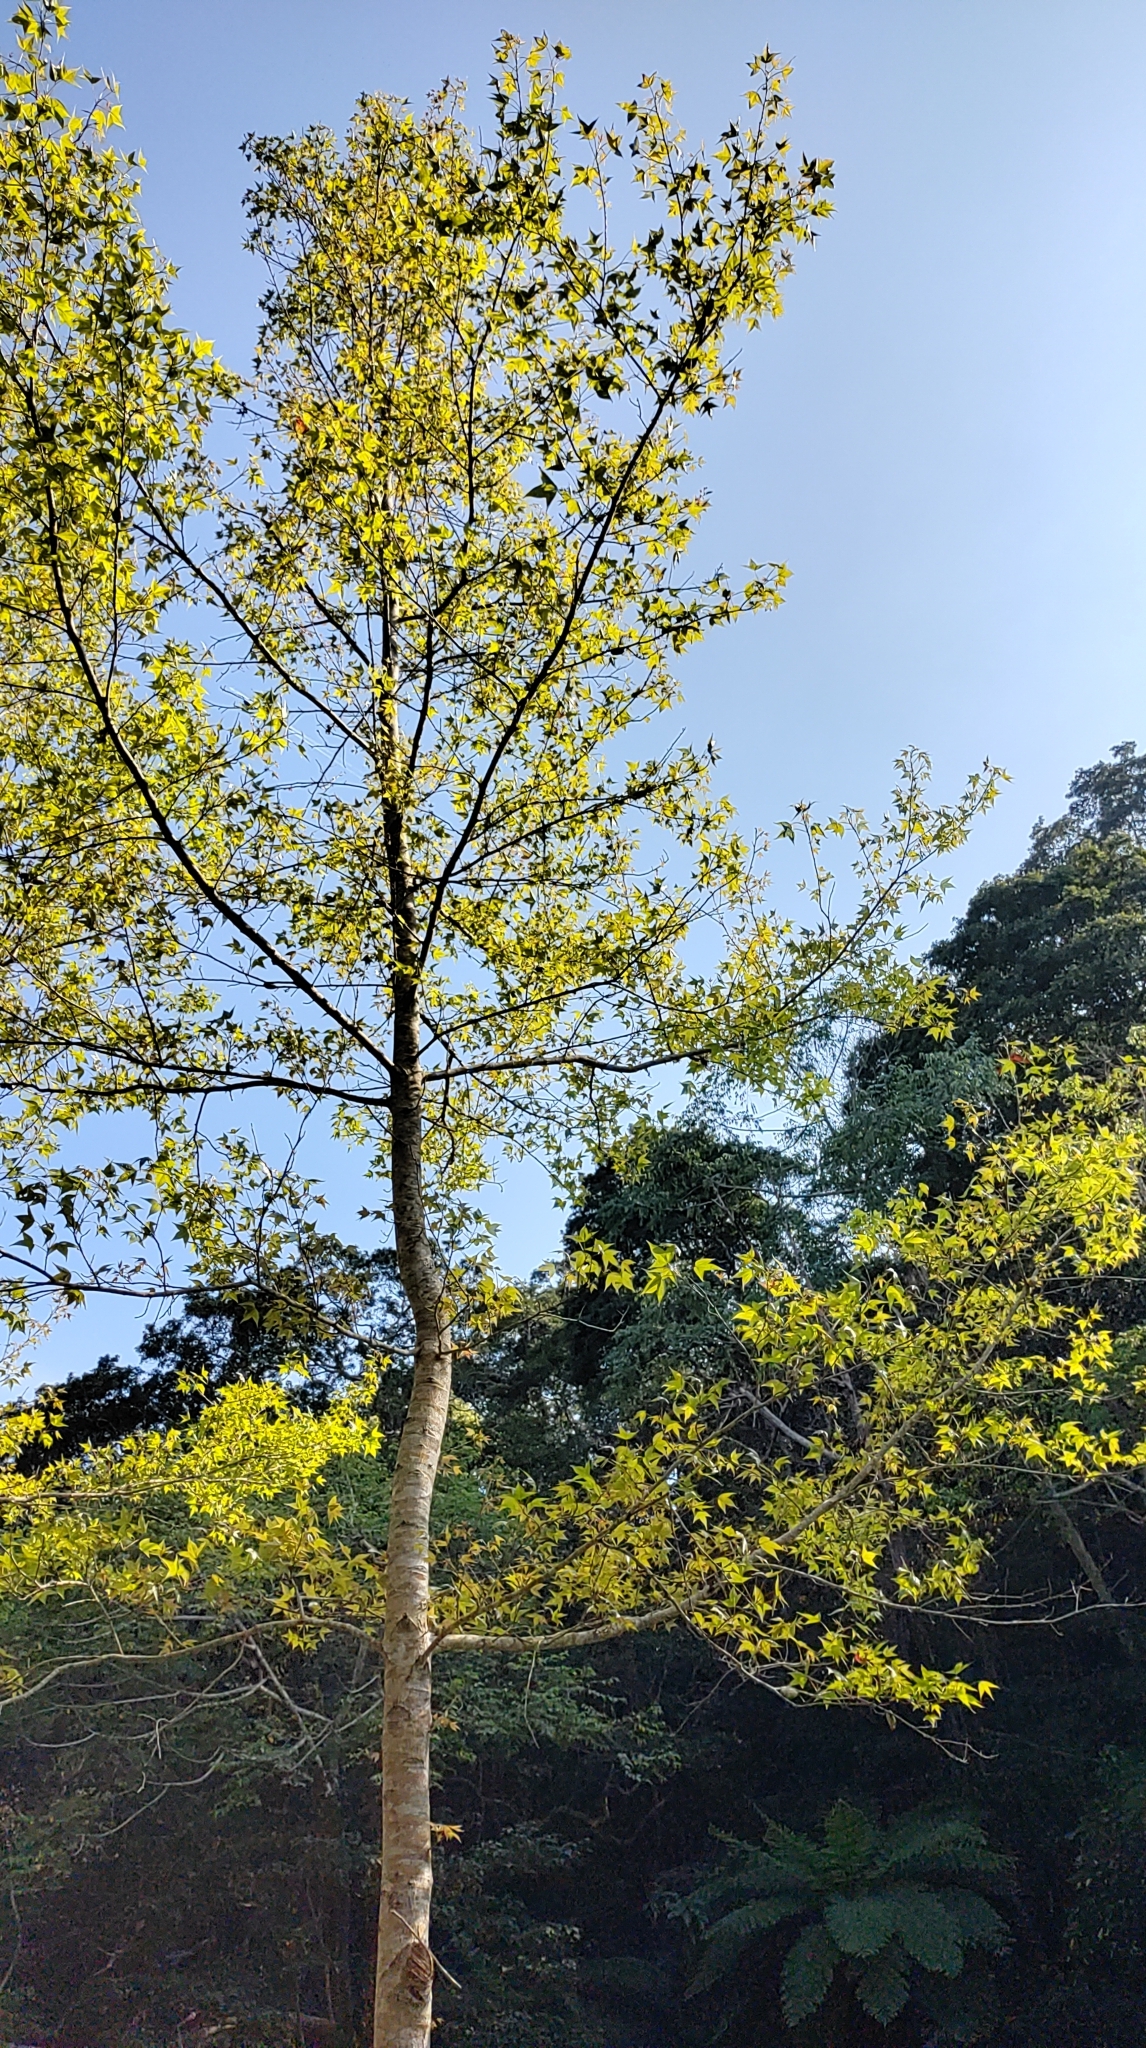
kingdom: Plantae
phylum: Tracheophyta
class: Magnoliopsida
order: Saxifragales
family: Altingiaceae
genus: Liquidambar
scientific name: Liquidambar formosana
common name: Chinese sweet gum
